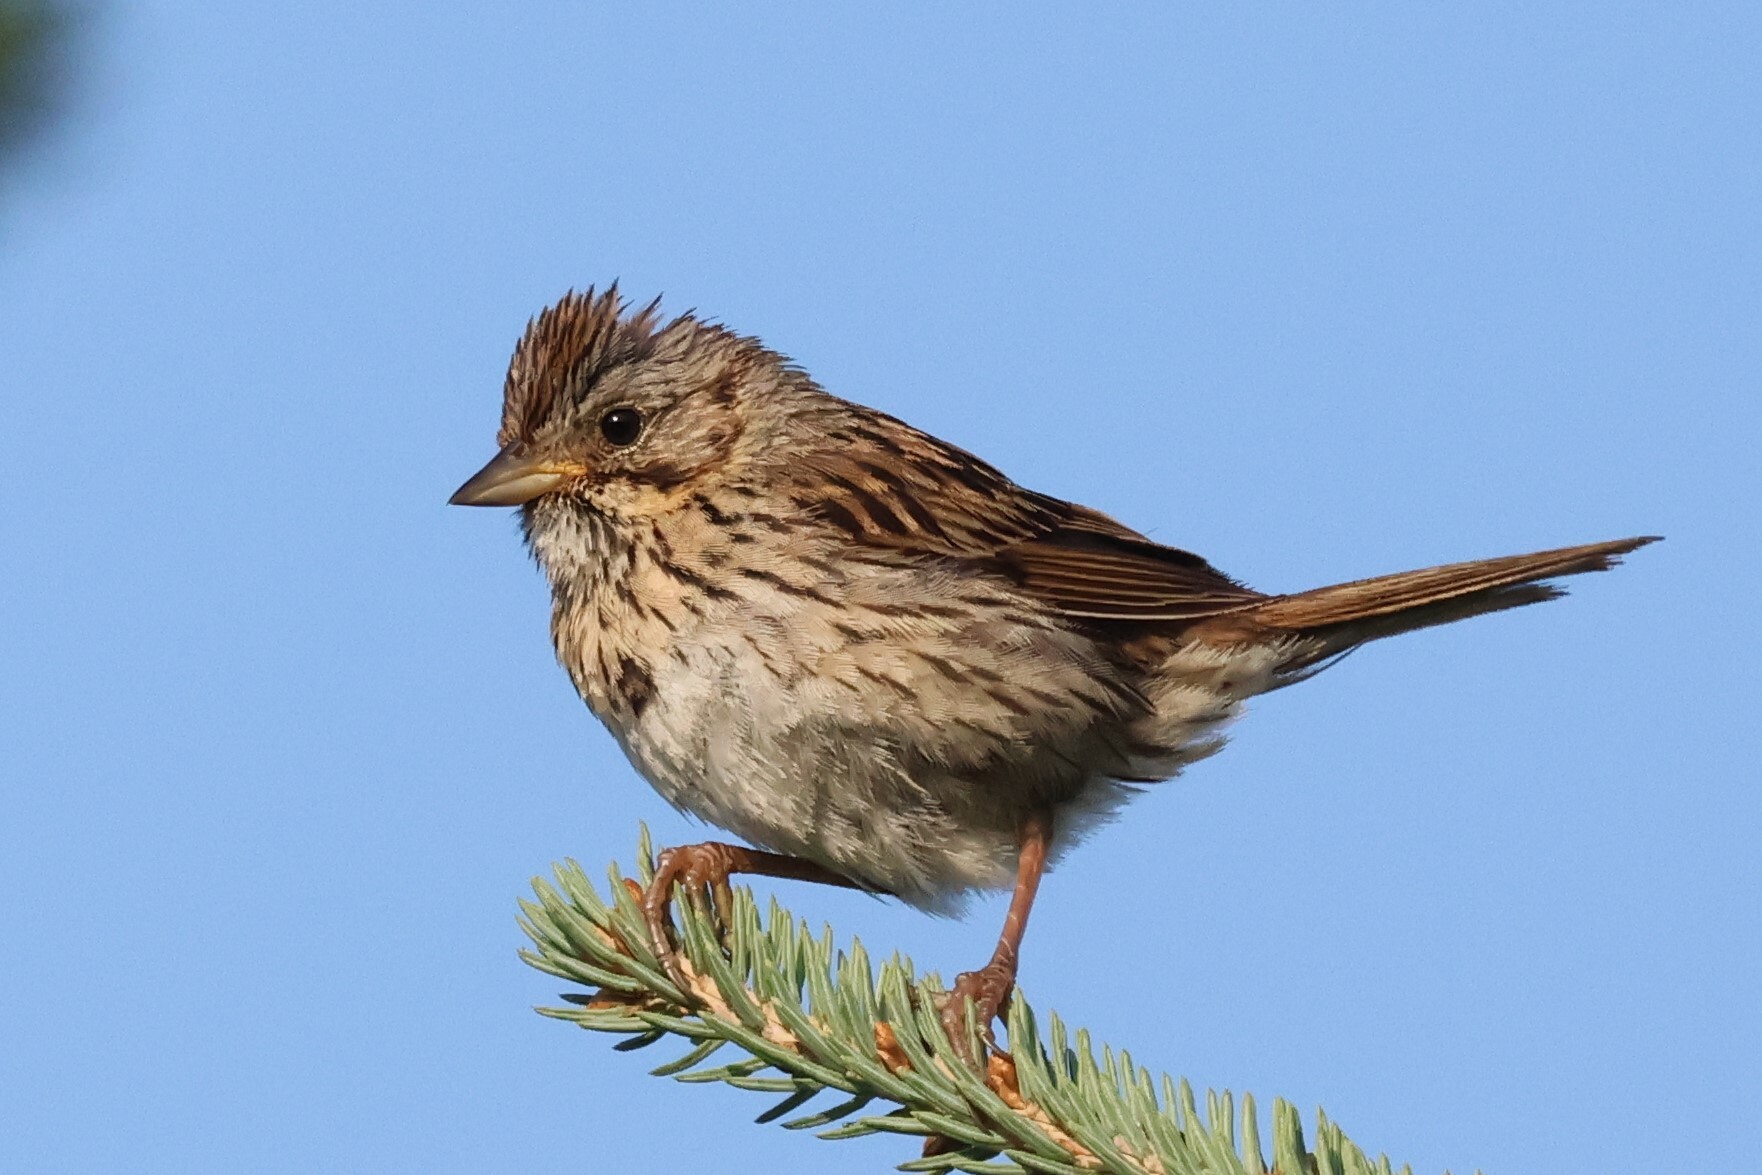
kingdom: Animalia
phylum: Chordata
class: Aves
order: Passeriformes
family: Passerellidae
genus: Melospiza
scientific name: Melospiza lincolnii
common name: Lincoln's sparrow
